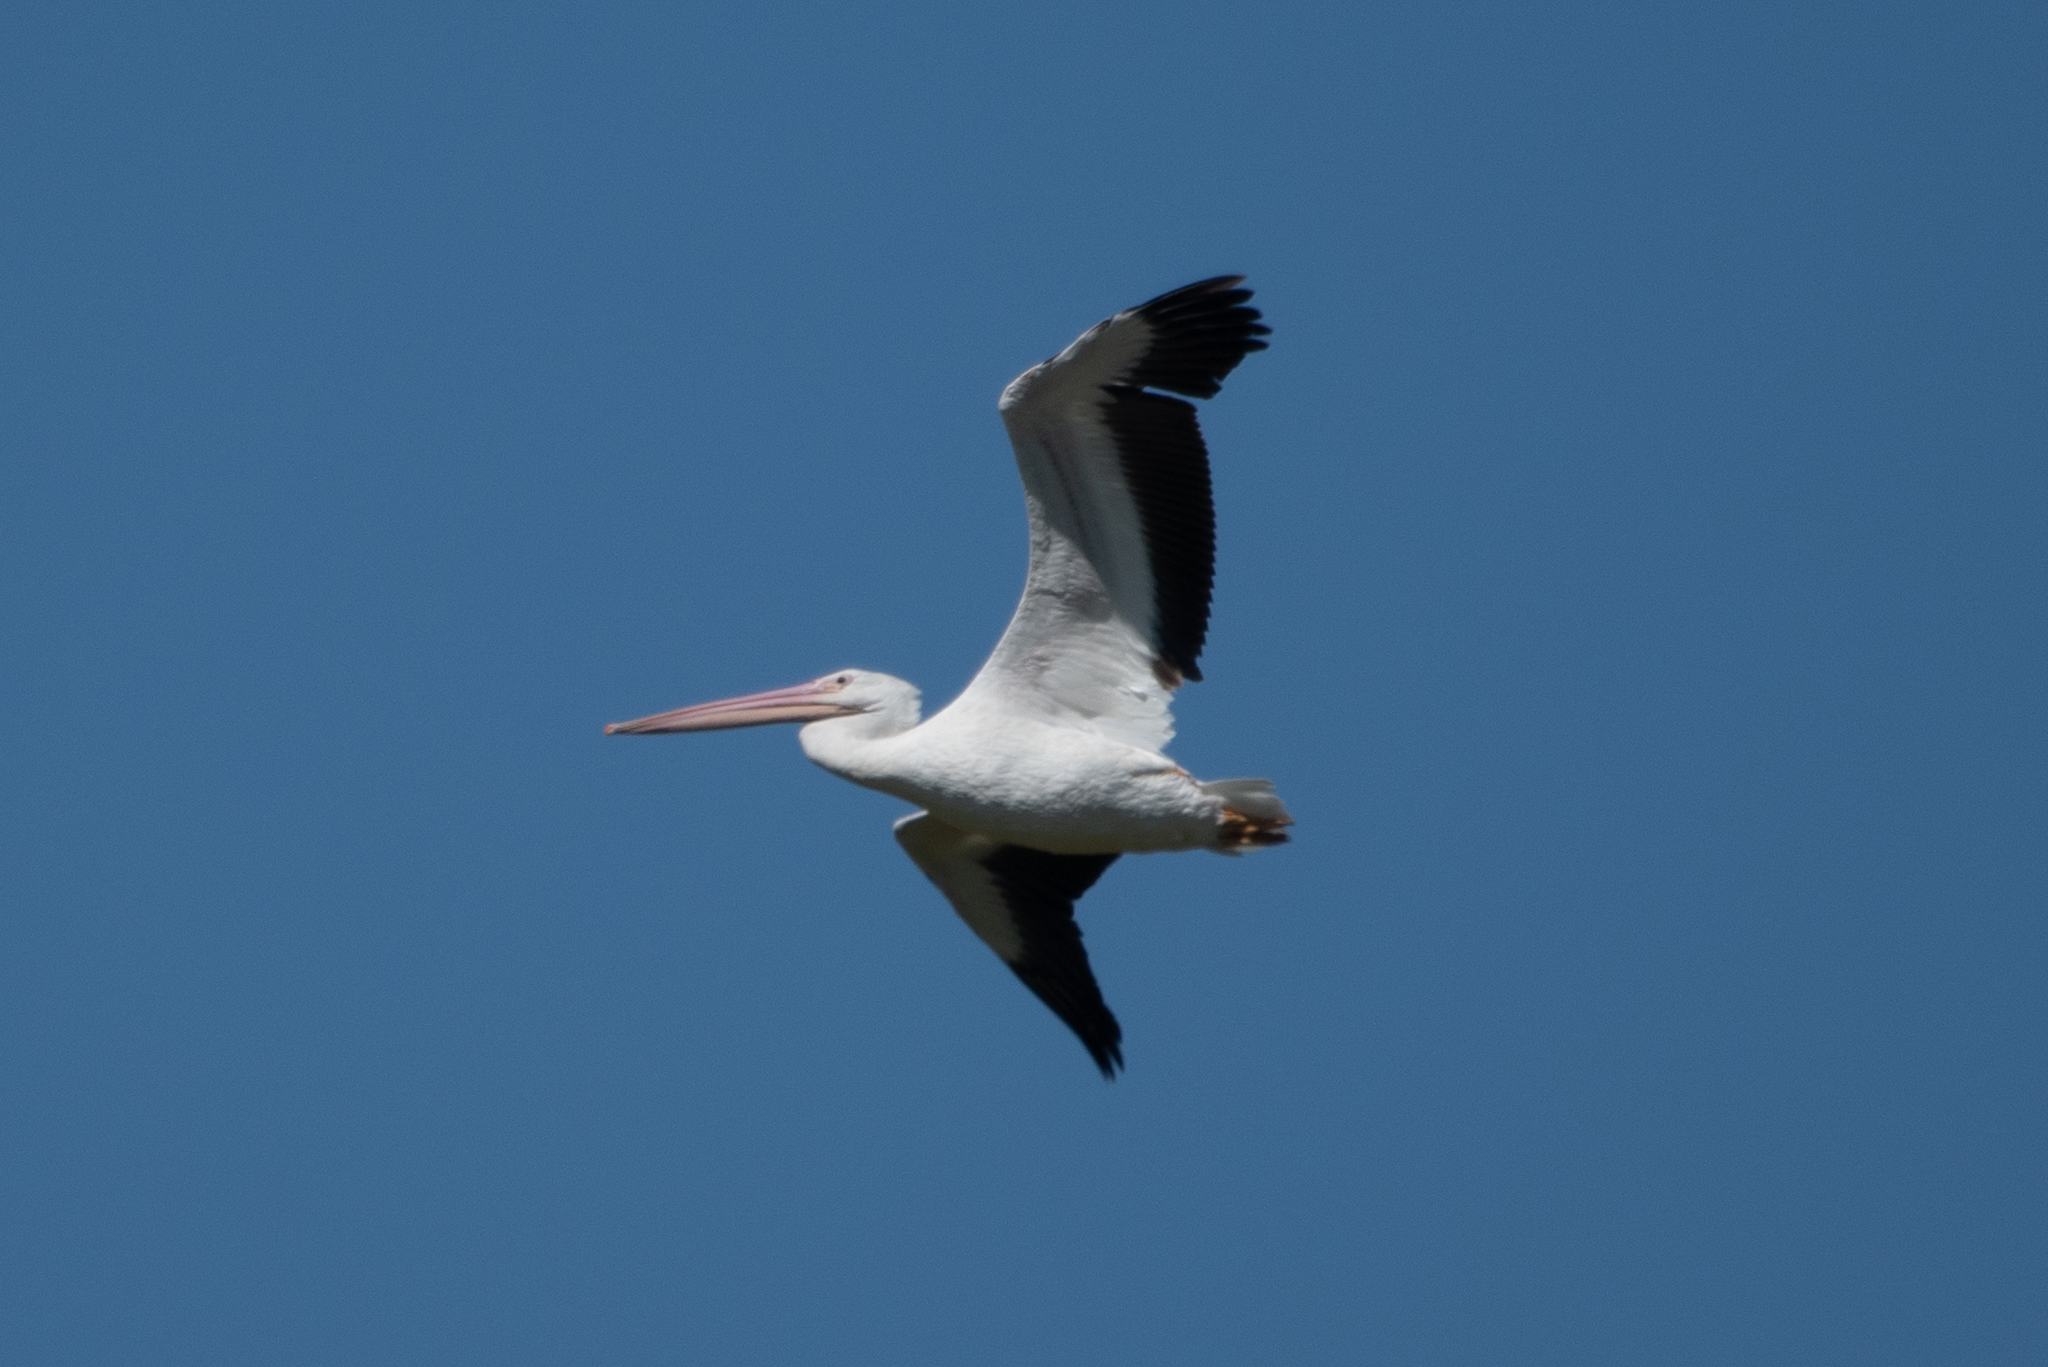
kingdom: Animalia
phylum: Chordata
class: Aves
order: Pelecaniformes
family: Pelecanidae
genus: Pelecanus
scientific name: Pelecanus erythrorhynchos
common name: American white pelican
